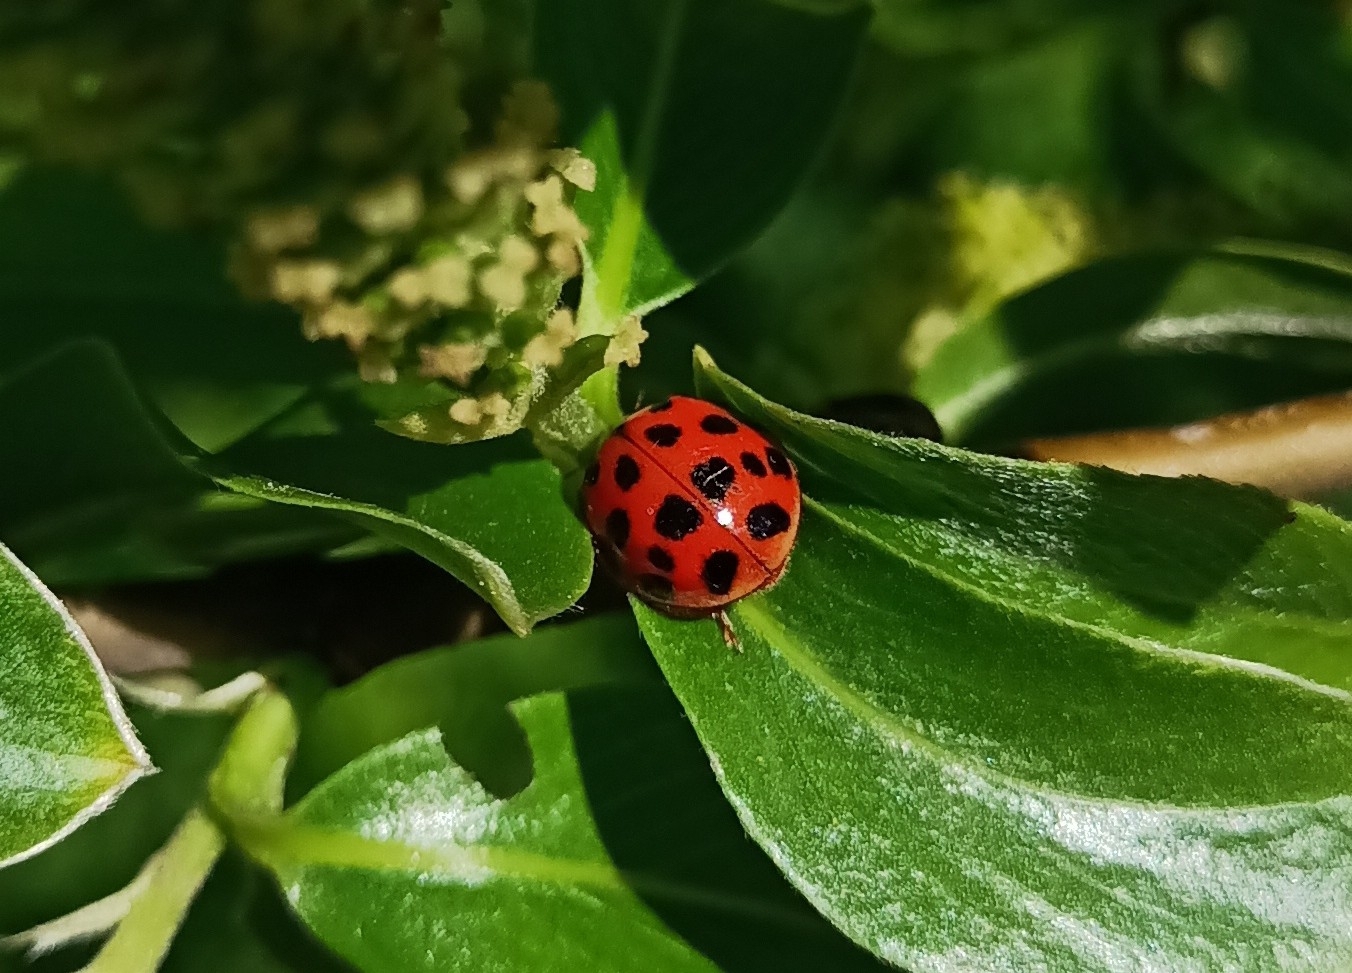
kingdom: Animalia
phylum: Arthropoda
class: Insecta
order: Coleoptera
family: Coccinellidae
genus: Harmonia
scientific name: Harmonia axyridis
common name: Harlequin ladybird
